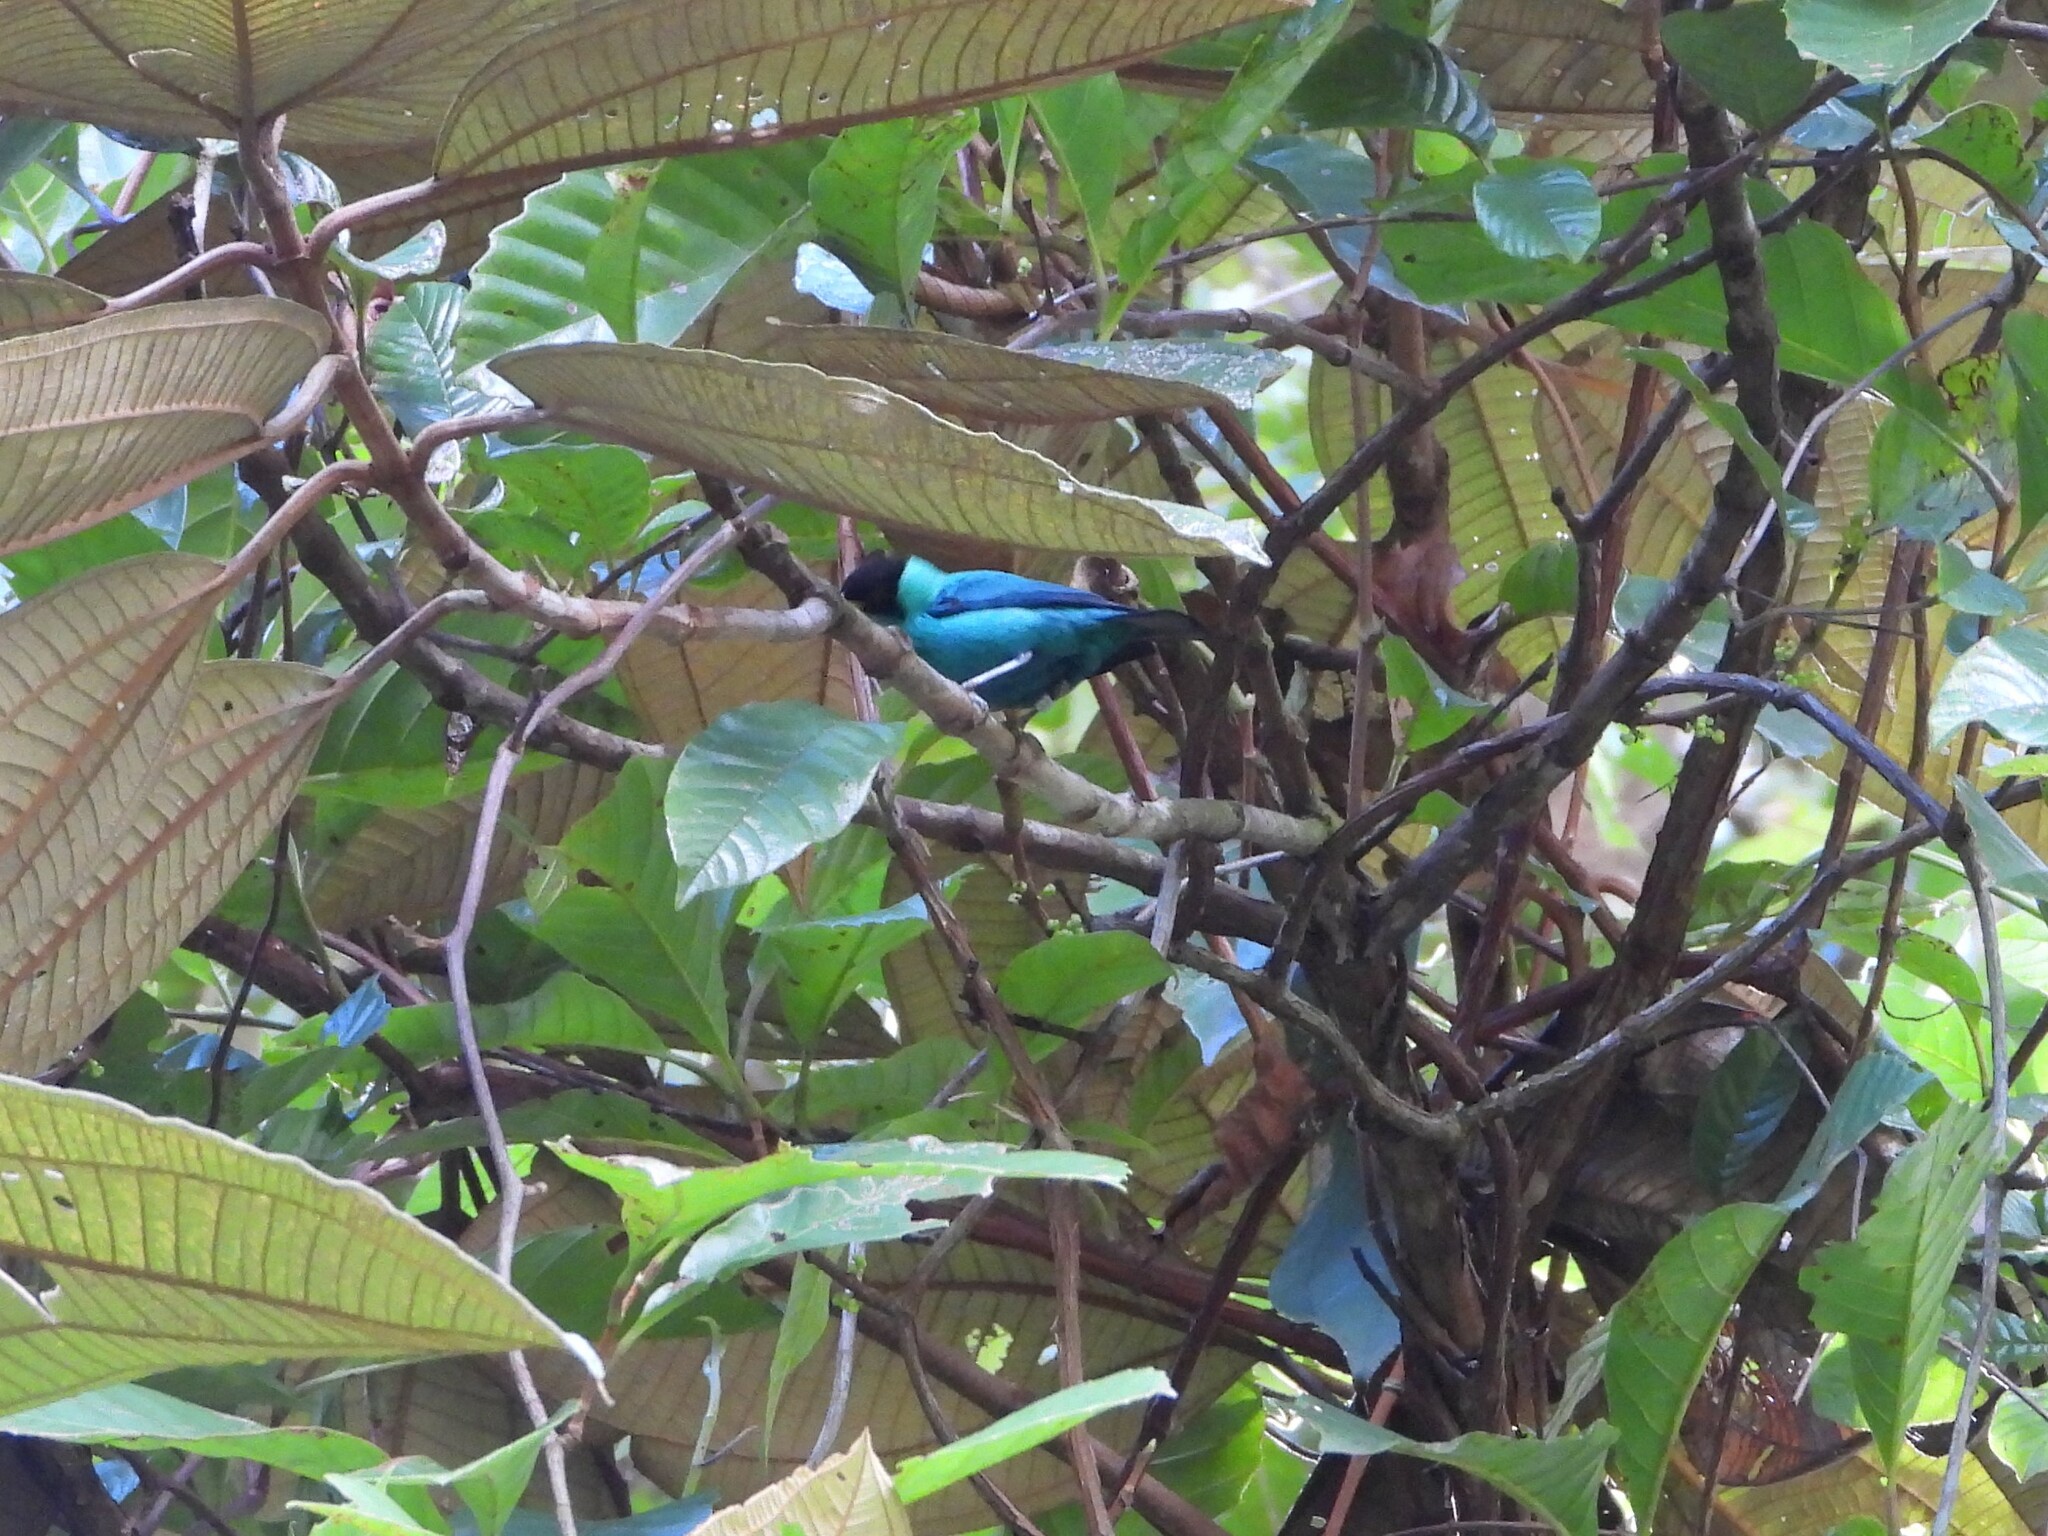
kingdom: Animalia
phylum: Chordata
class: Aves
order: Passeriformes
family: Thraupidae
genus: Chlorophanes
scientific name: Chlorophanes spiza
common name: Green honeycreeper
